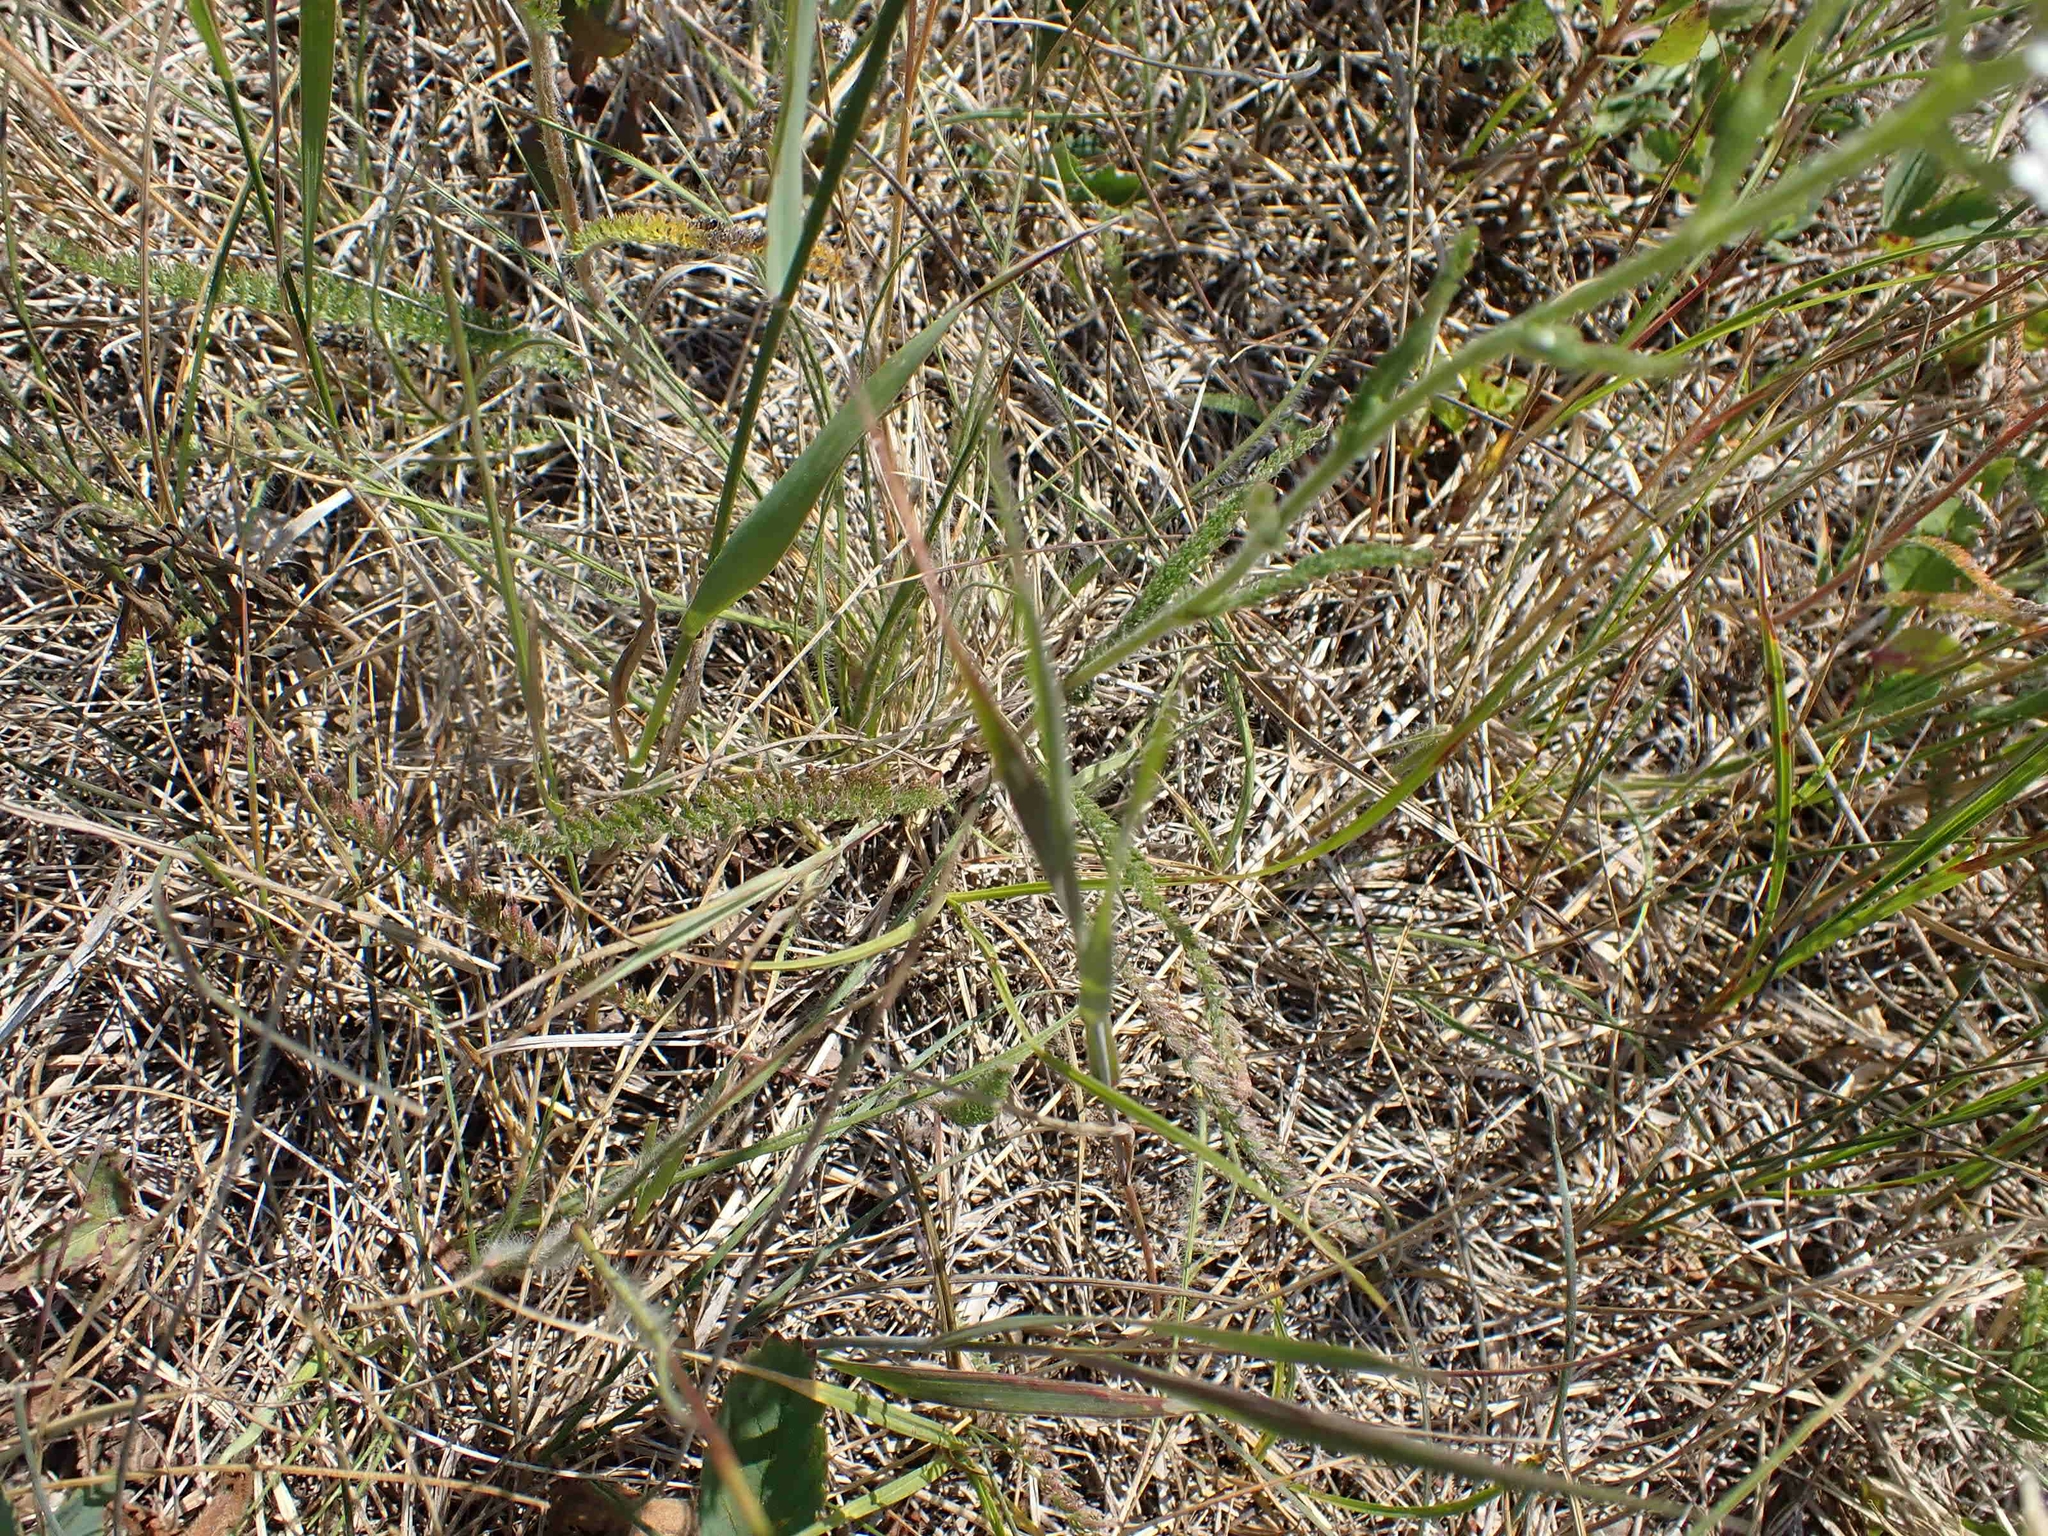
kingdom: Plantae
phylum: Tracheophyta
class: Magnoliopsida
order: Asterales
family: Asteraceae
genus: Achillea
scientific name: Achillea millefolium
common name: Yarrow
